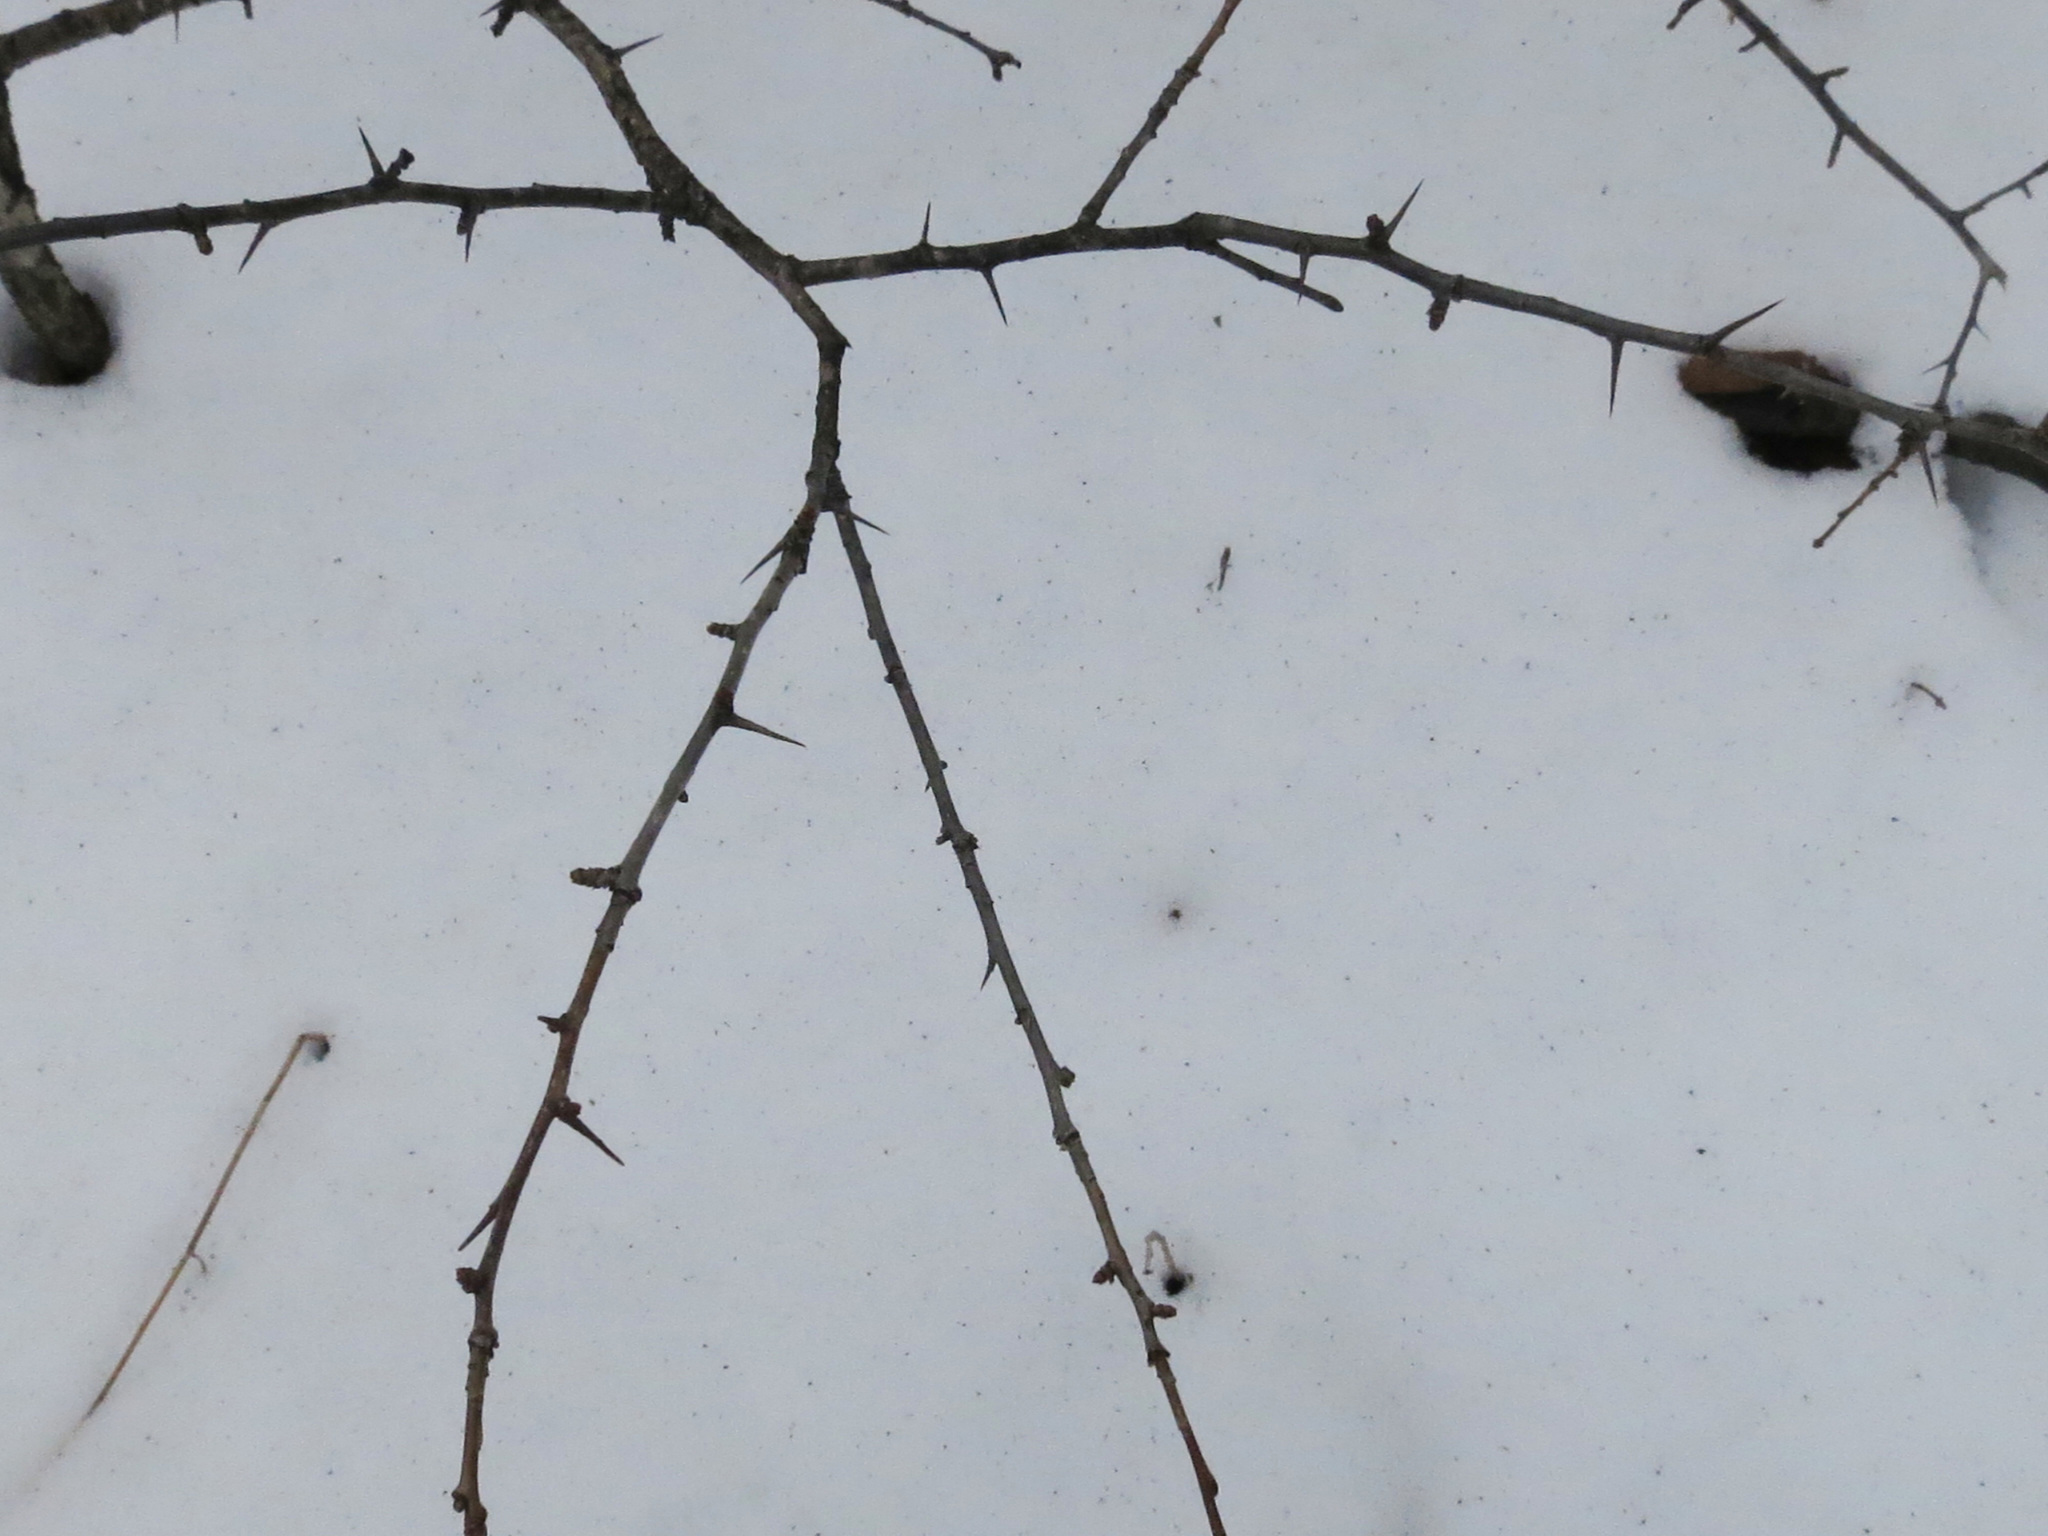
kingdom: Plantae
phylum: Tracheophyta
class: Magnoliopsida
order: Rosales
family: Rosaceae
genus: Crataegus
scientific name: Crataegus pinnatifida
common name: Chinese haw
